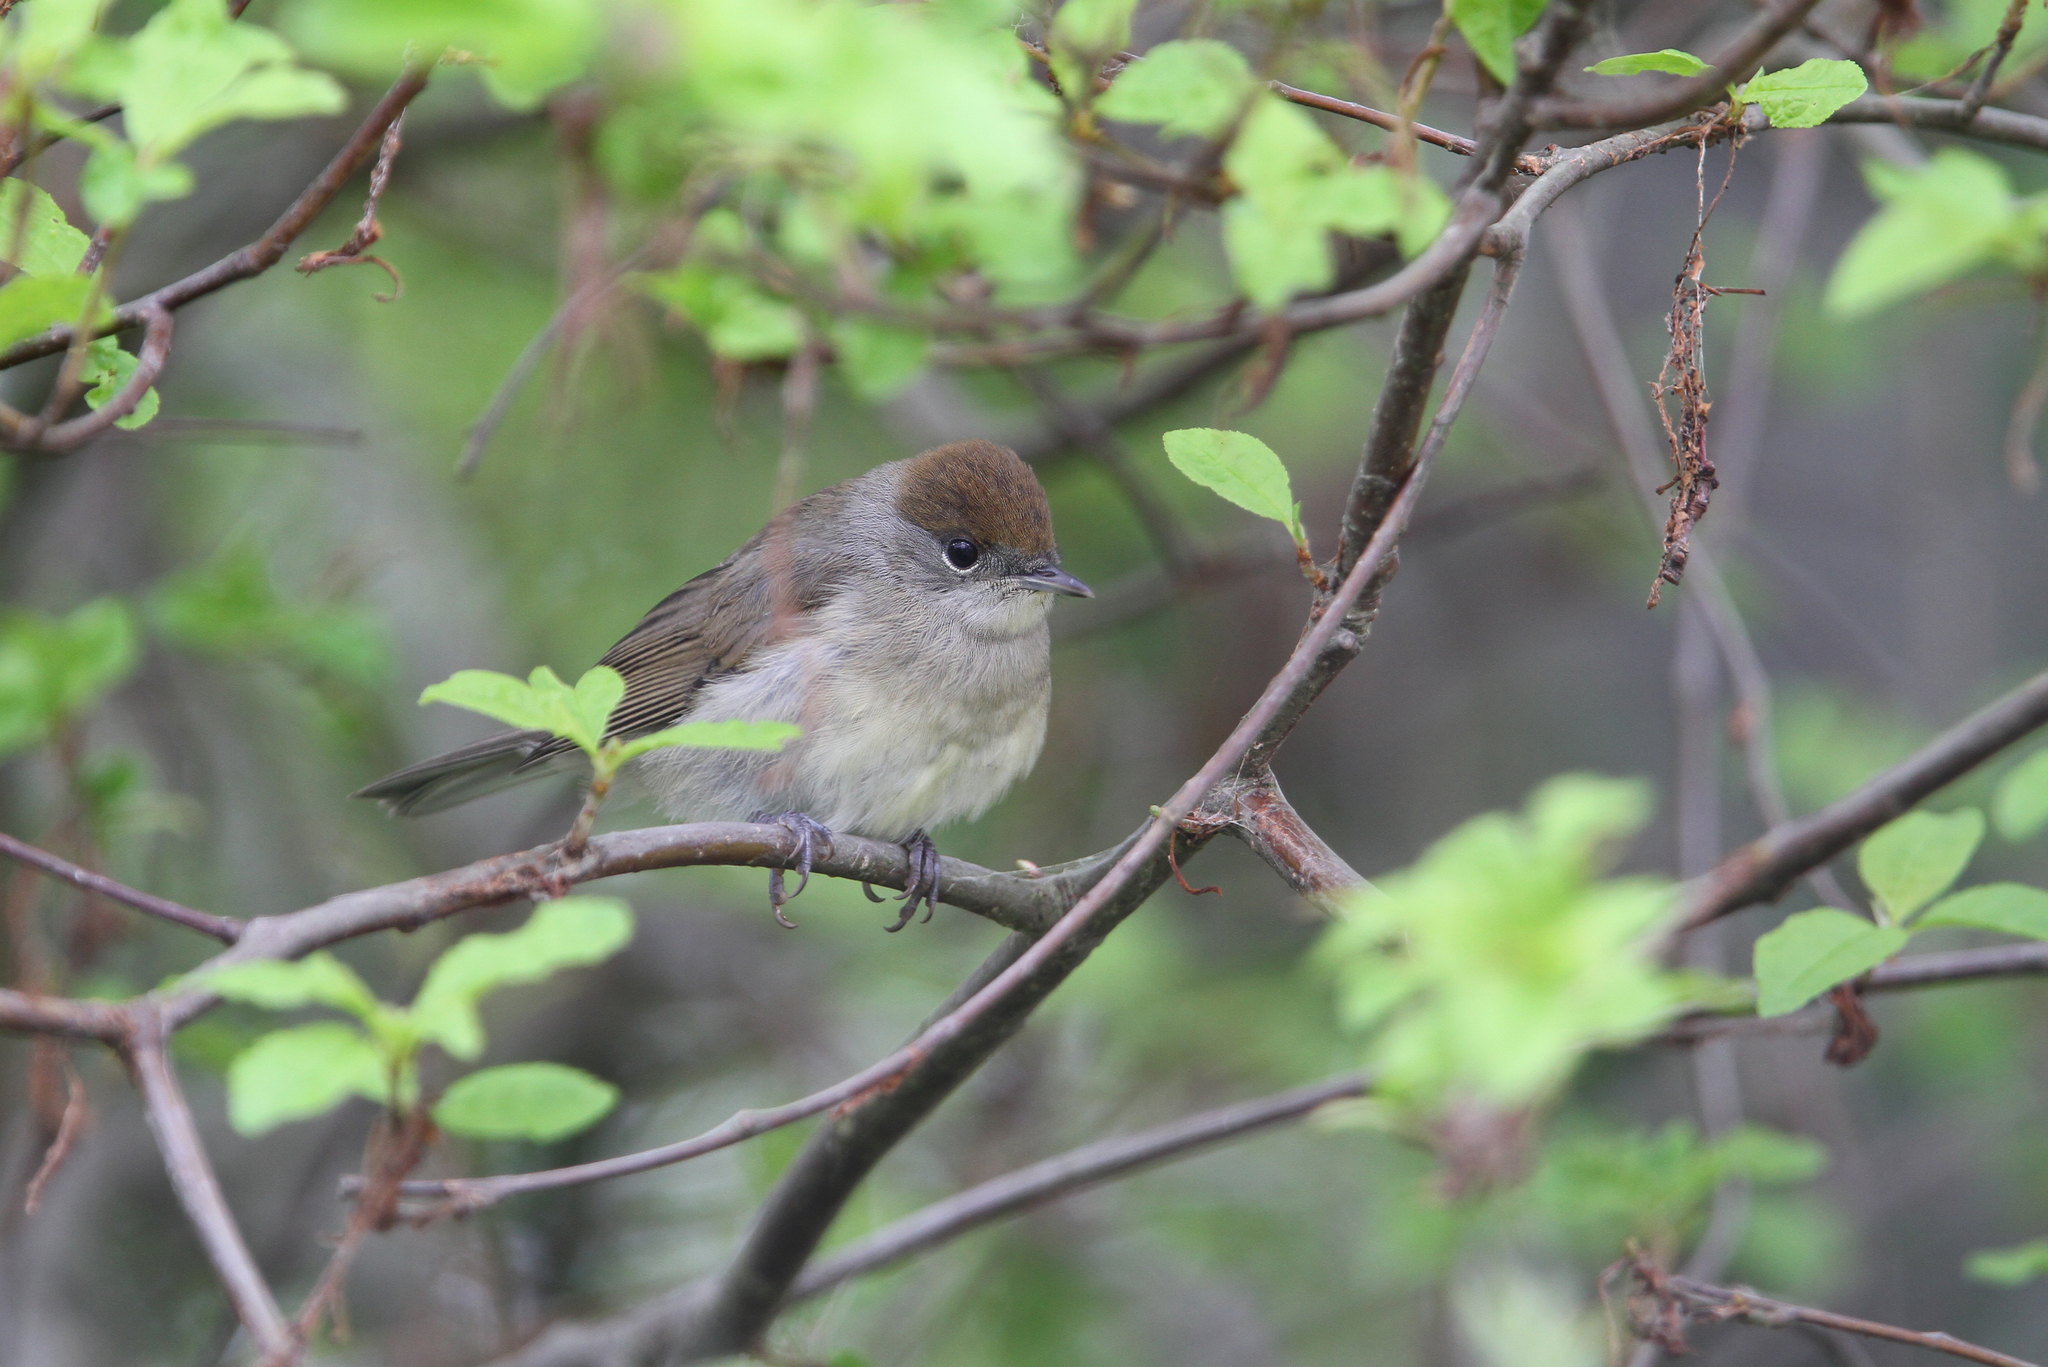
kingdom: Animalia
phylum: Chordata
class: Aves
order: Passeriformes
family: Sylviidae
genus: Sylvia
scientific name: Sylvia atricapilla
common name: Eurasian blackcap
